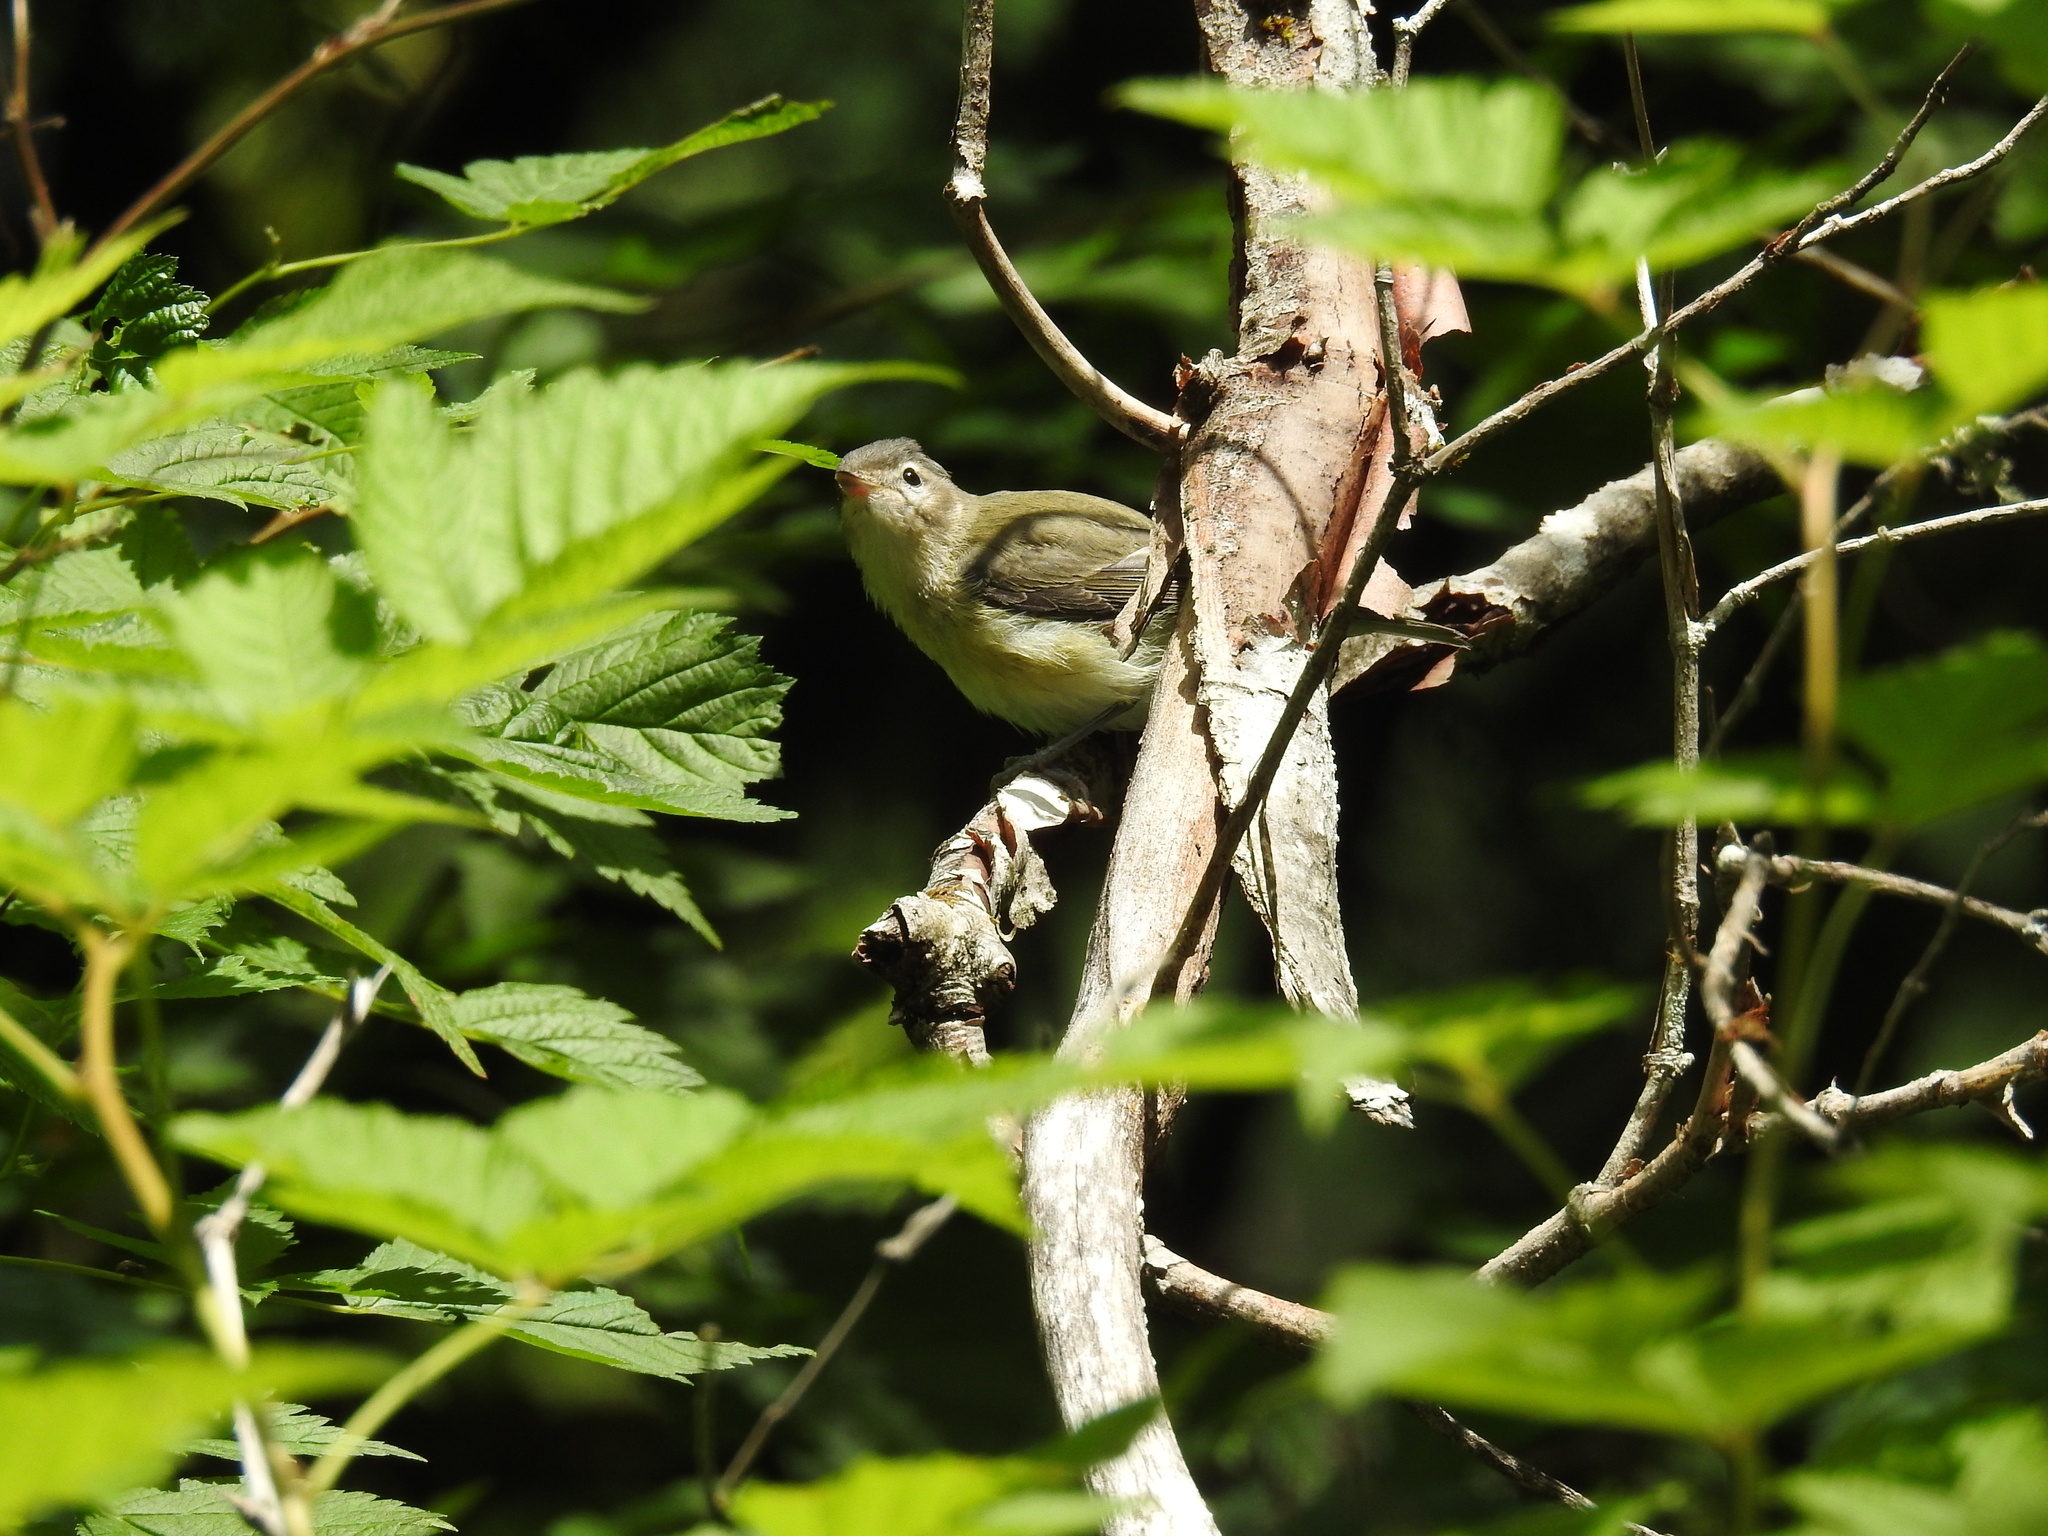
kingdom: Animalia
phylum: Chordata
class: Aves
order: Passeriformes
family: Vireonidae
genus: Vireo
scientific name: Vireo gilvus
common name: Warbling vireo
